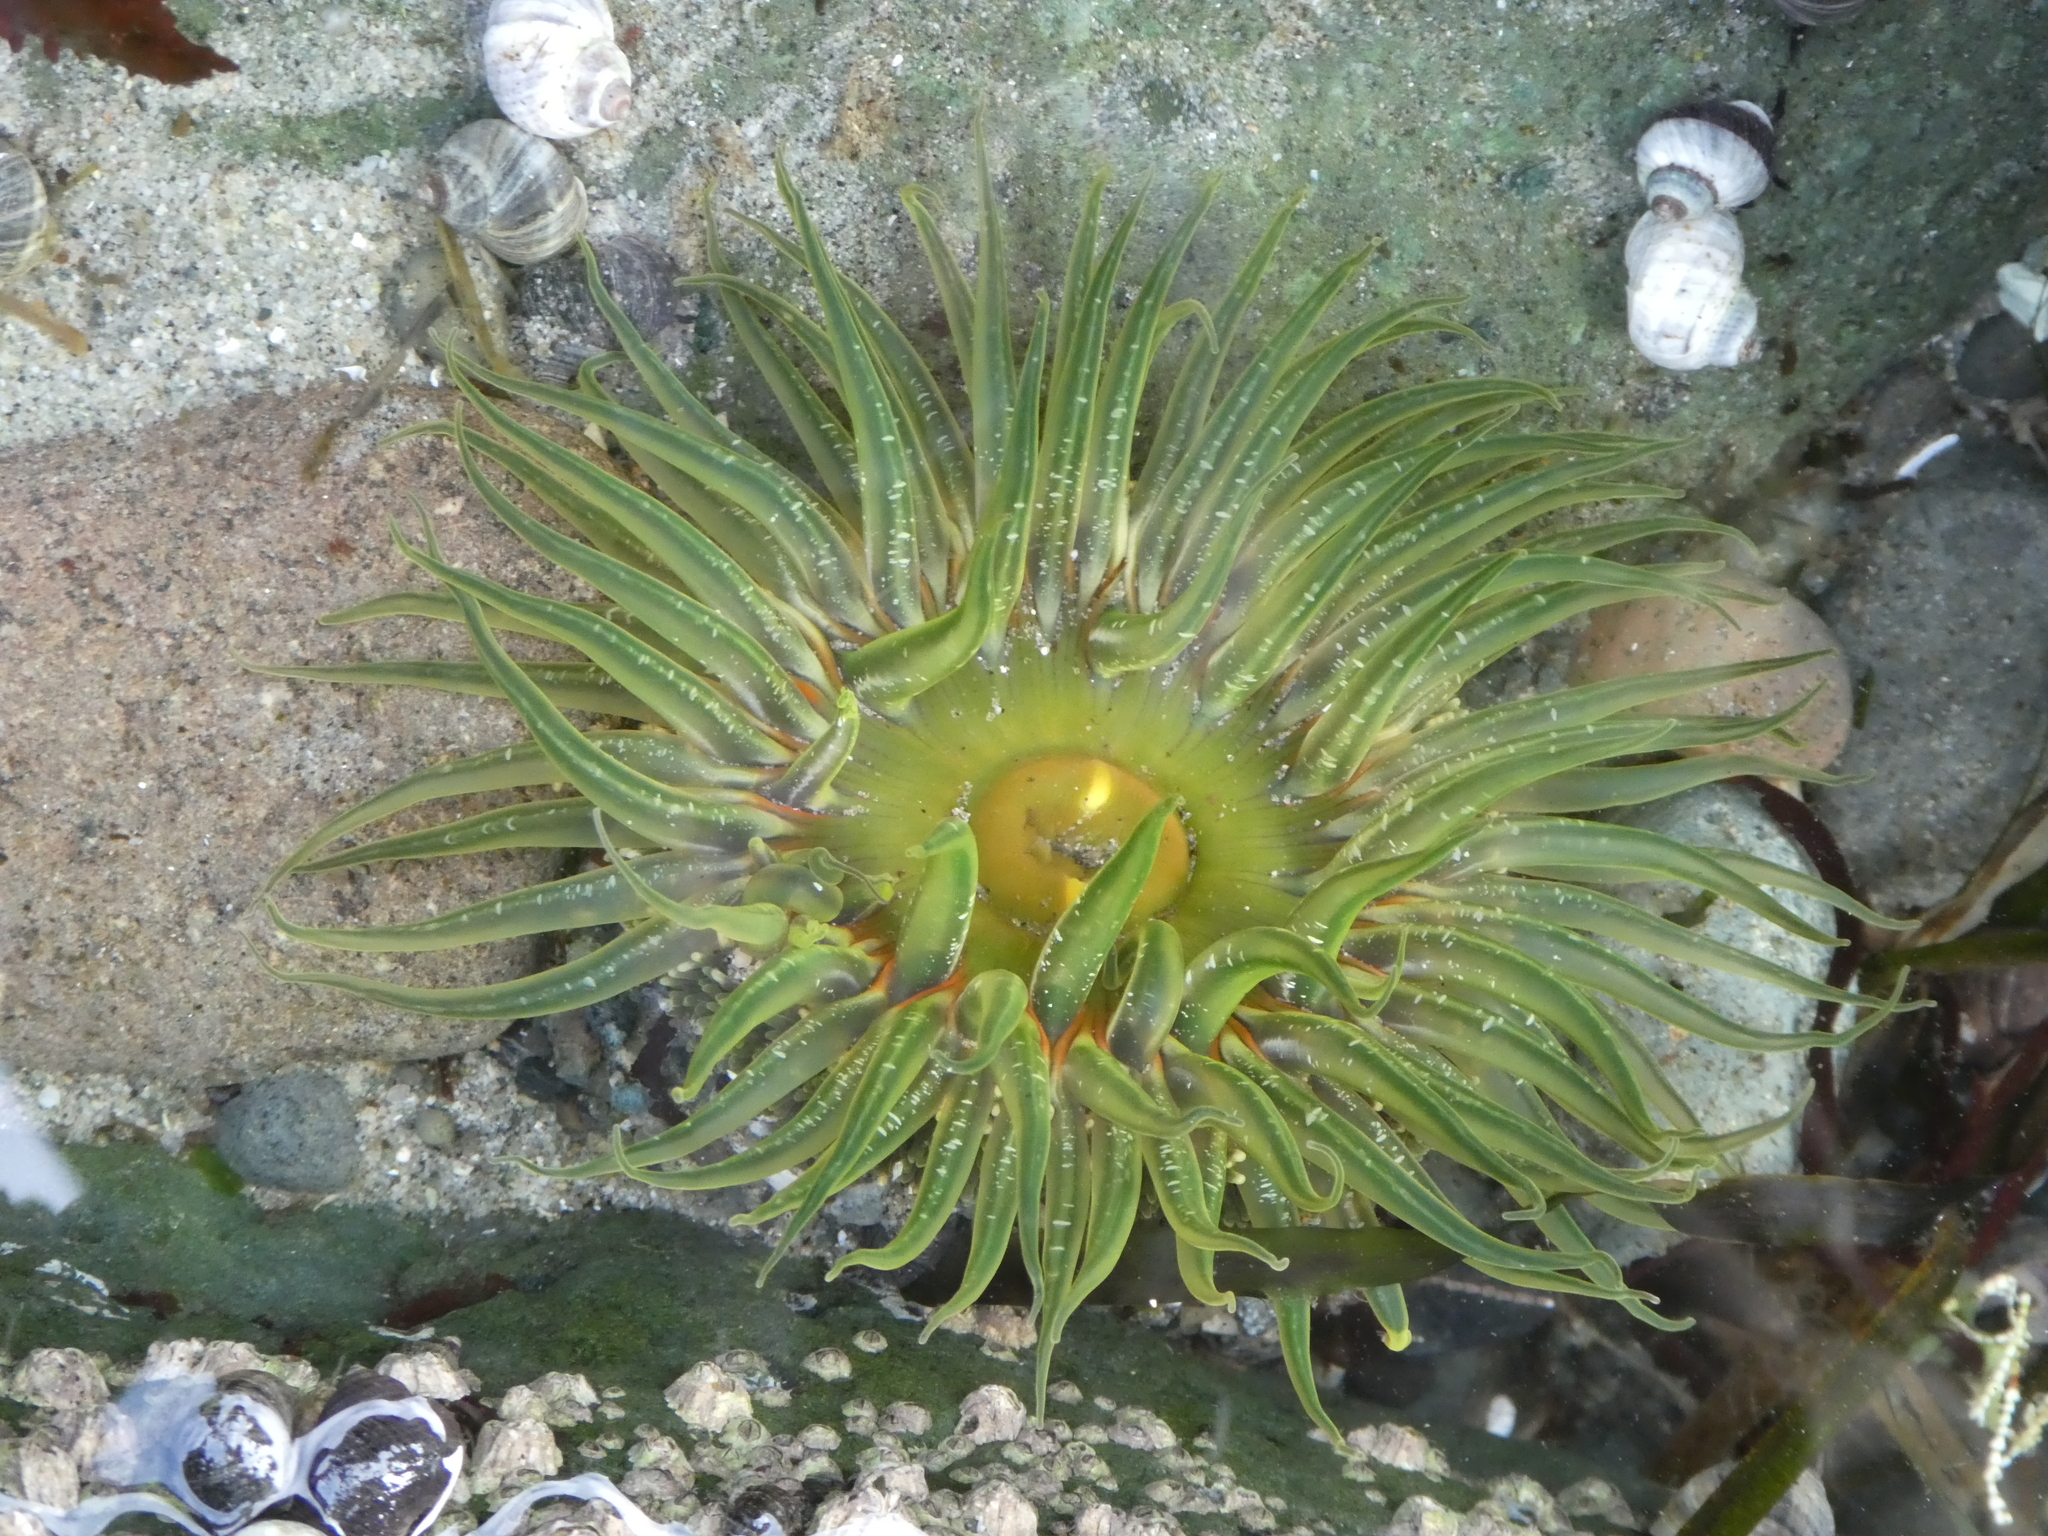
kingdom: Animalia
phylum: Cnidaria
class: Anthozoa
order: Actiniaria
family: Actiniidae
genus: Anthopleura
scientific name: Anthopleura artemisia
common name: Buried sea anemone
